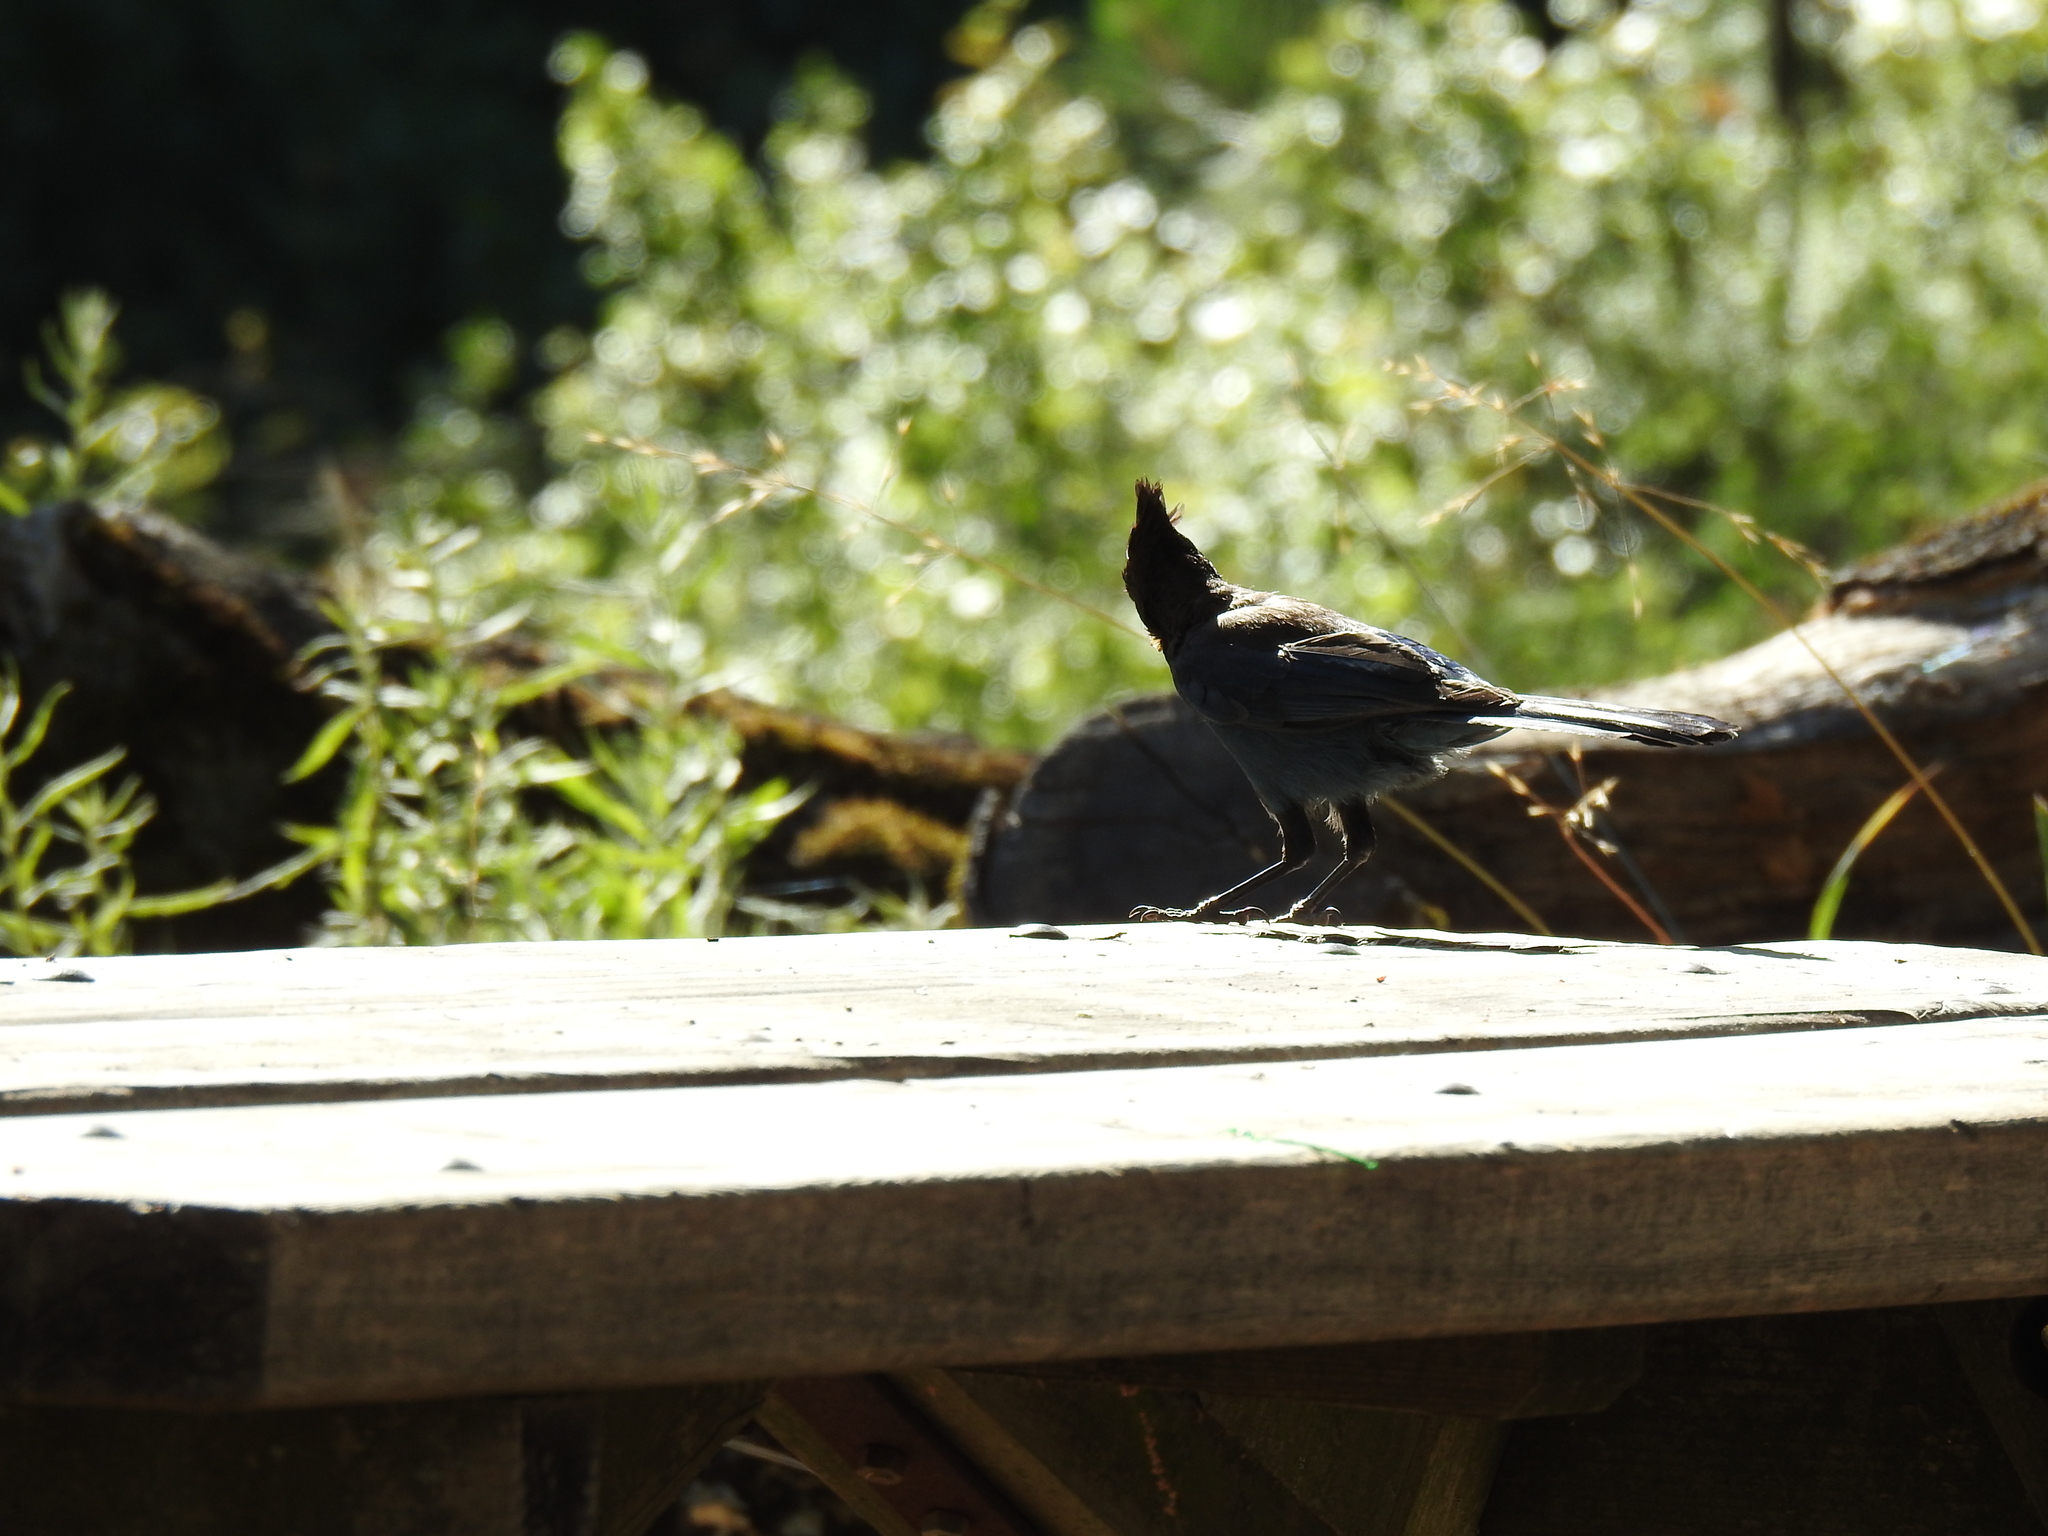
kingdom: Animalia
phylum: Chordata
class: Aves
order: Passeriformes
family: Corvidae
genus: Cyanocitta
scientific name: Cyanocitta stelleri
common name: Steller's jay
